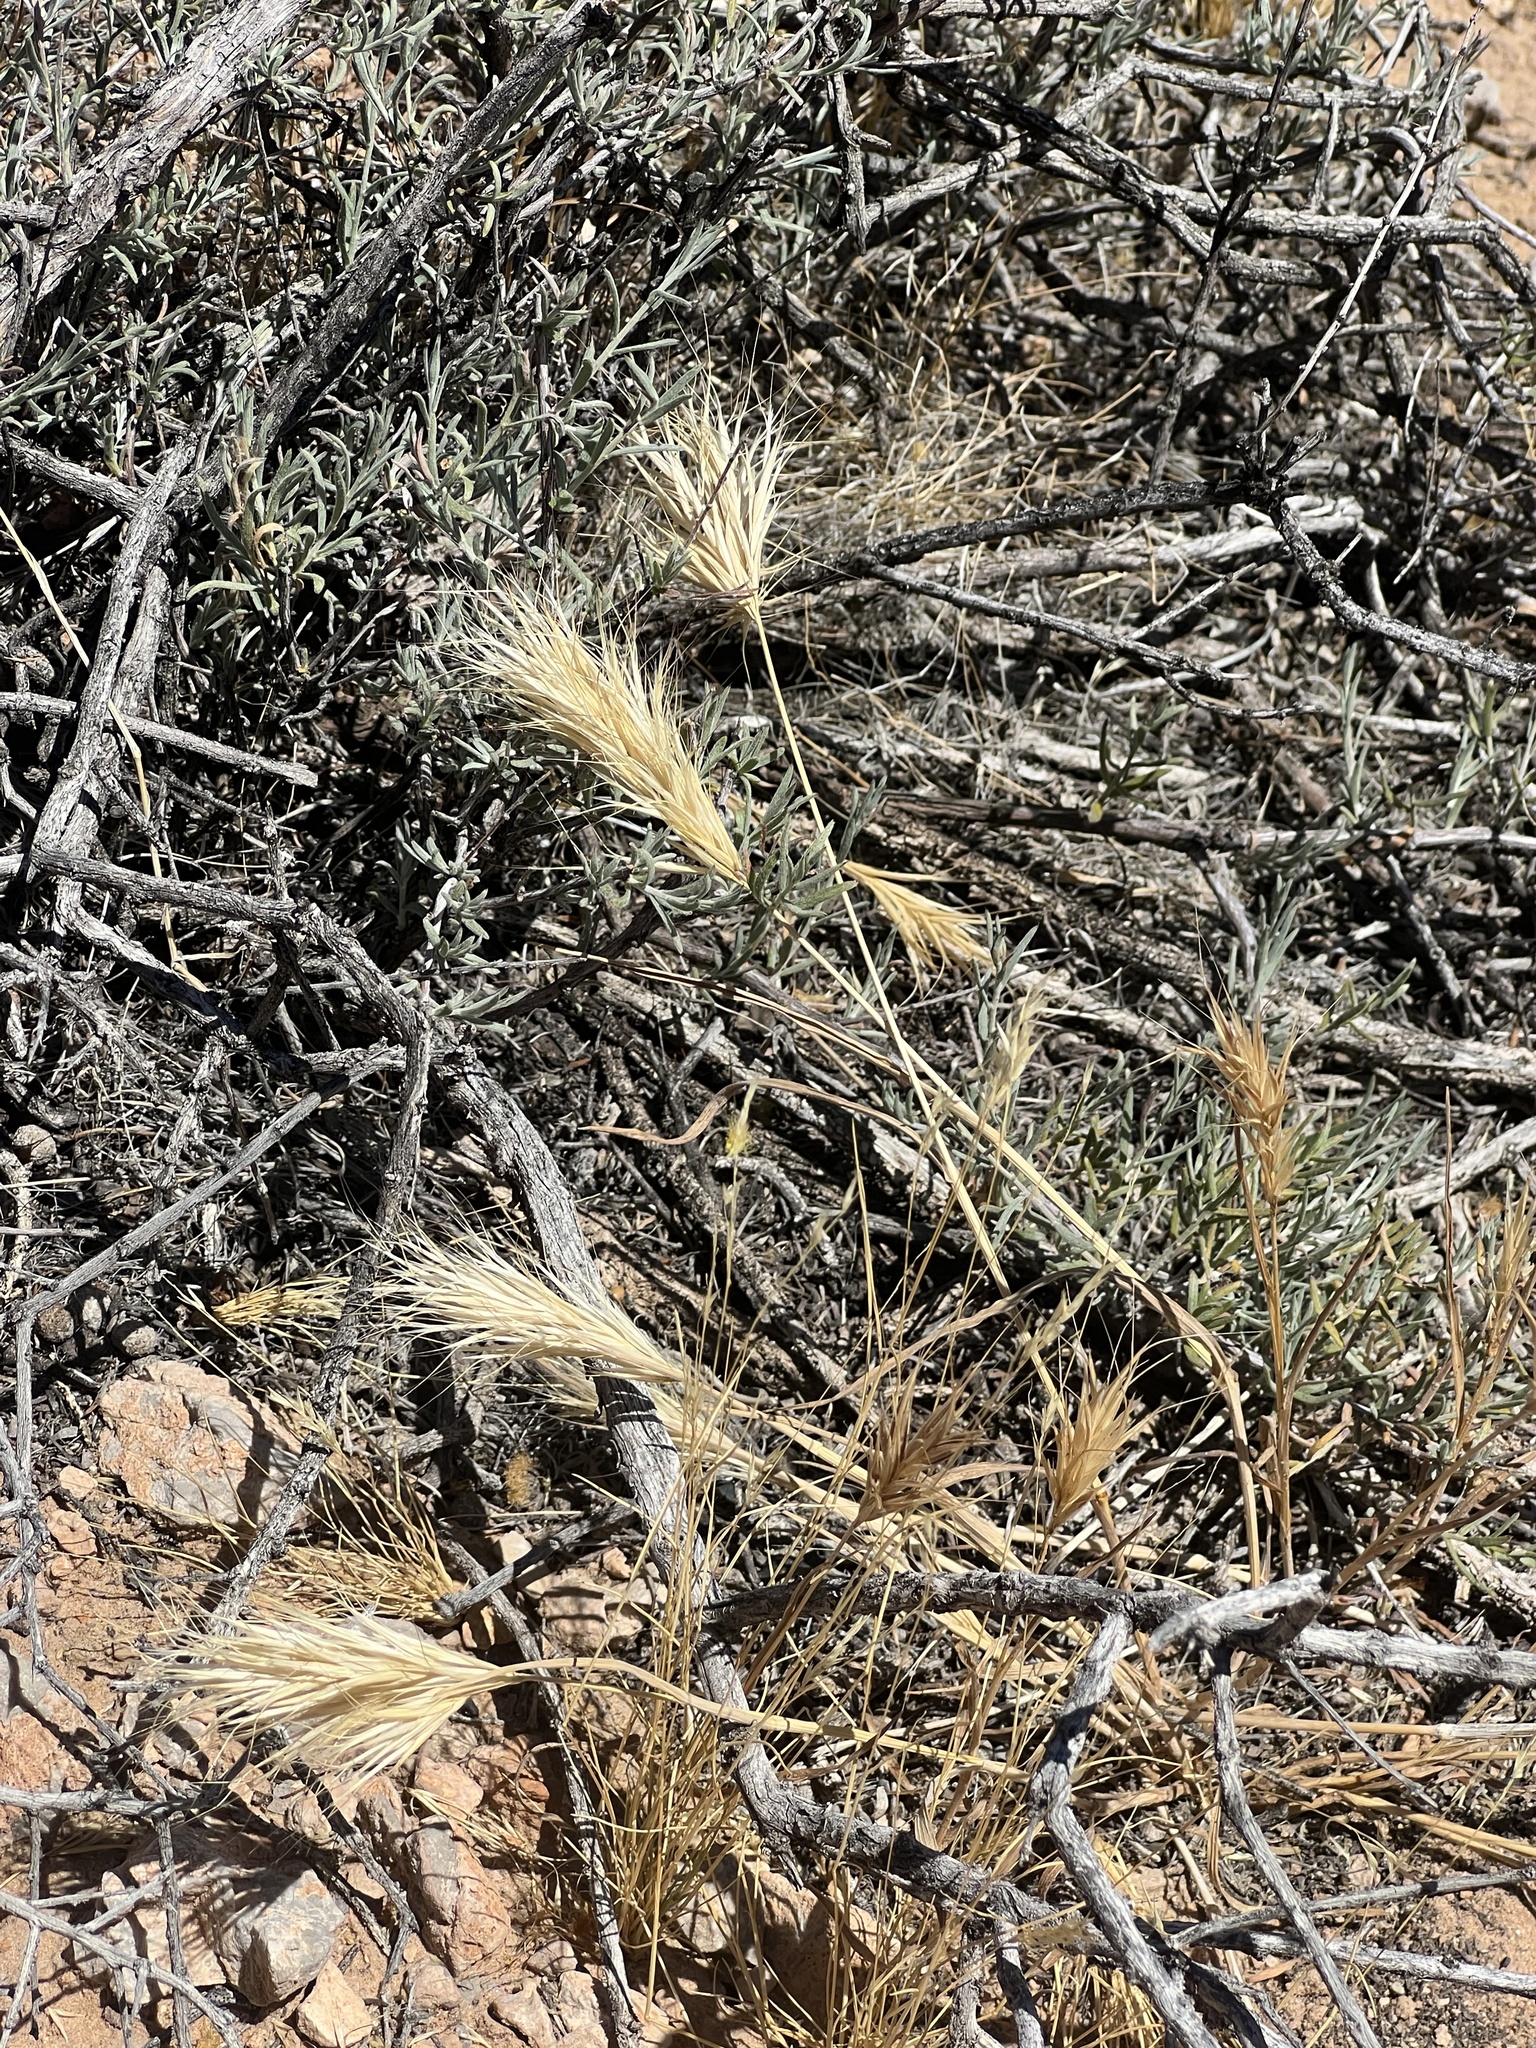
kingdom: Plantae
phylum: Tracheophyta
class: Liliopsida
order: Poales
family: Poaceae
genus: Bromus
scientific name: Bromus rubens
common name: Red brome
